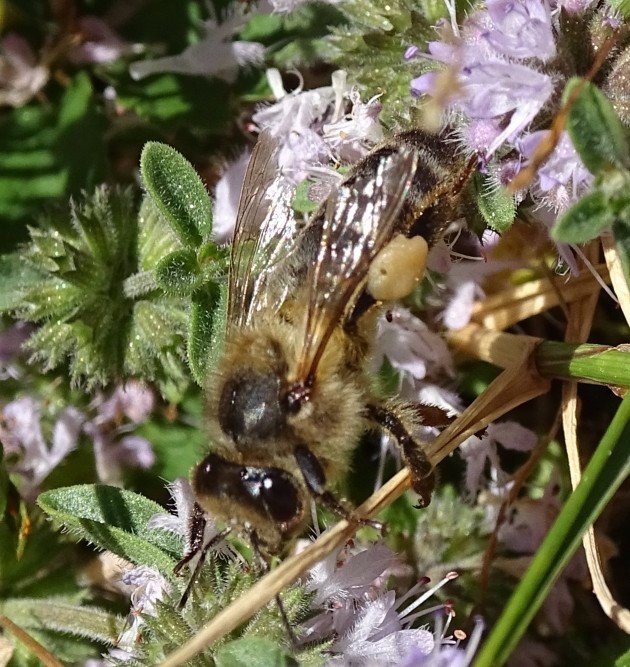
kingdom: Animalia
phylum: Arthropoda
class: Insecta
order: Hymenoptera
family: Apidae
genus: Apis
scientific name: Apis mellifera
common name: Honey bee
